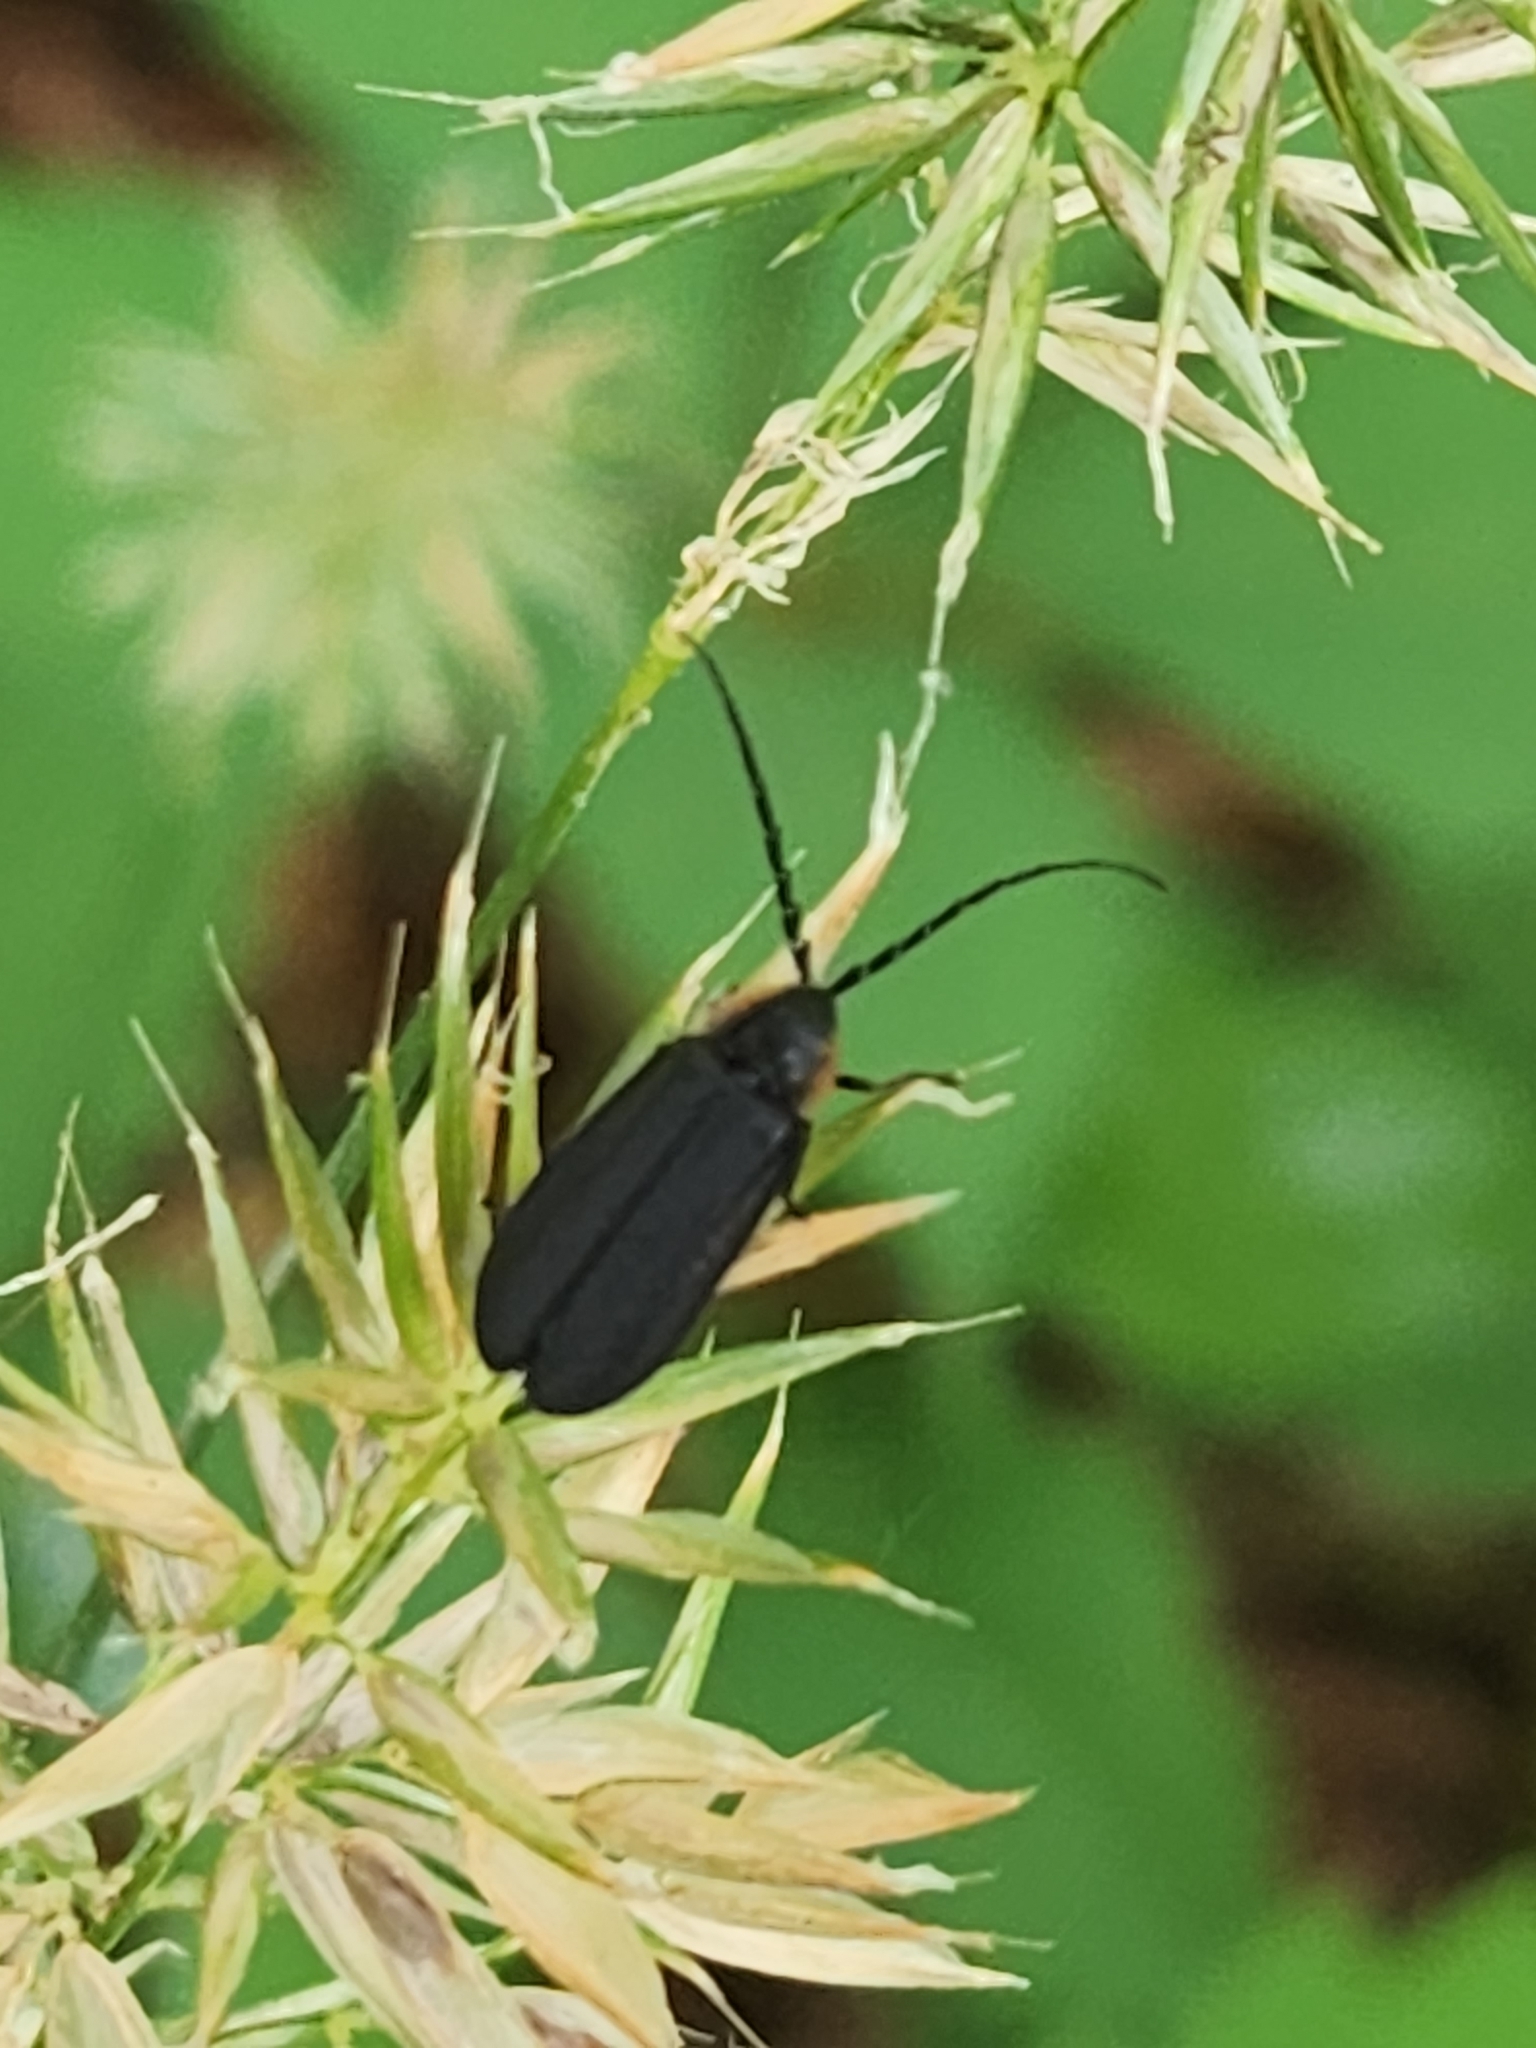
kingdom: Animalia
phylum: Arthropoda
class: Insecta
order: Coleoptera
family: Lampyridae
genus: Lucidota
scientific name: Lucidota atra
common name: Black firefly
